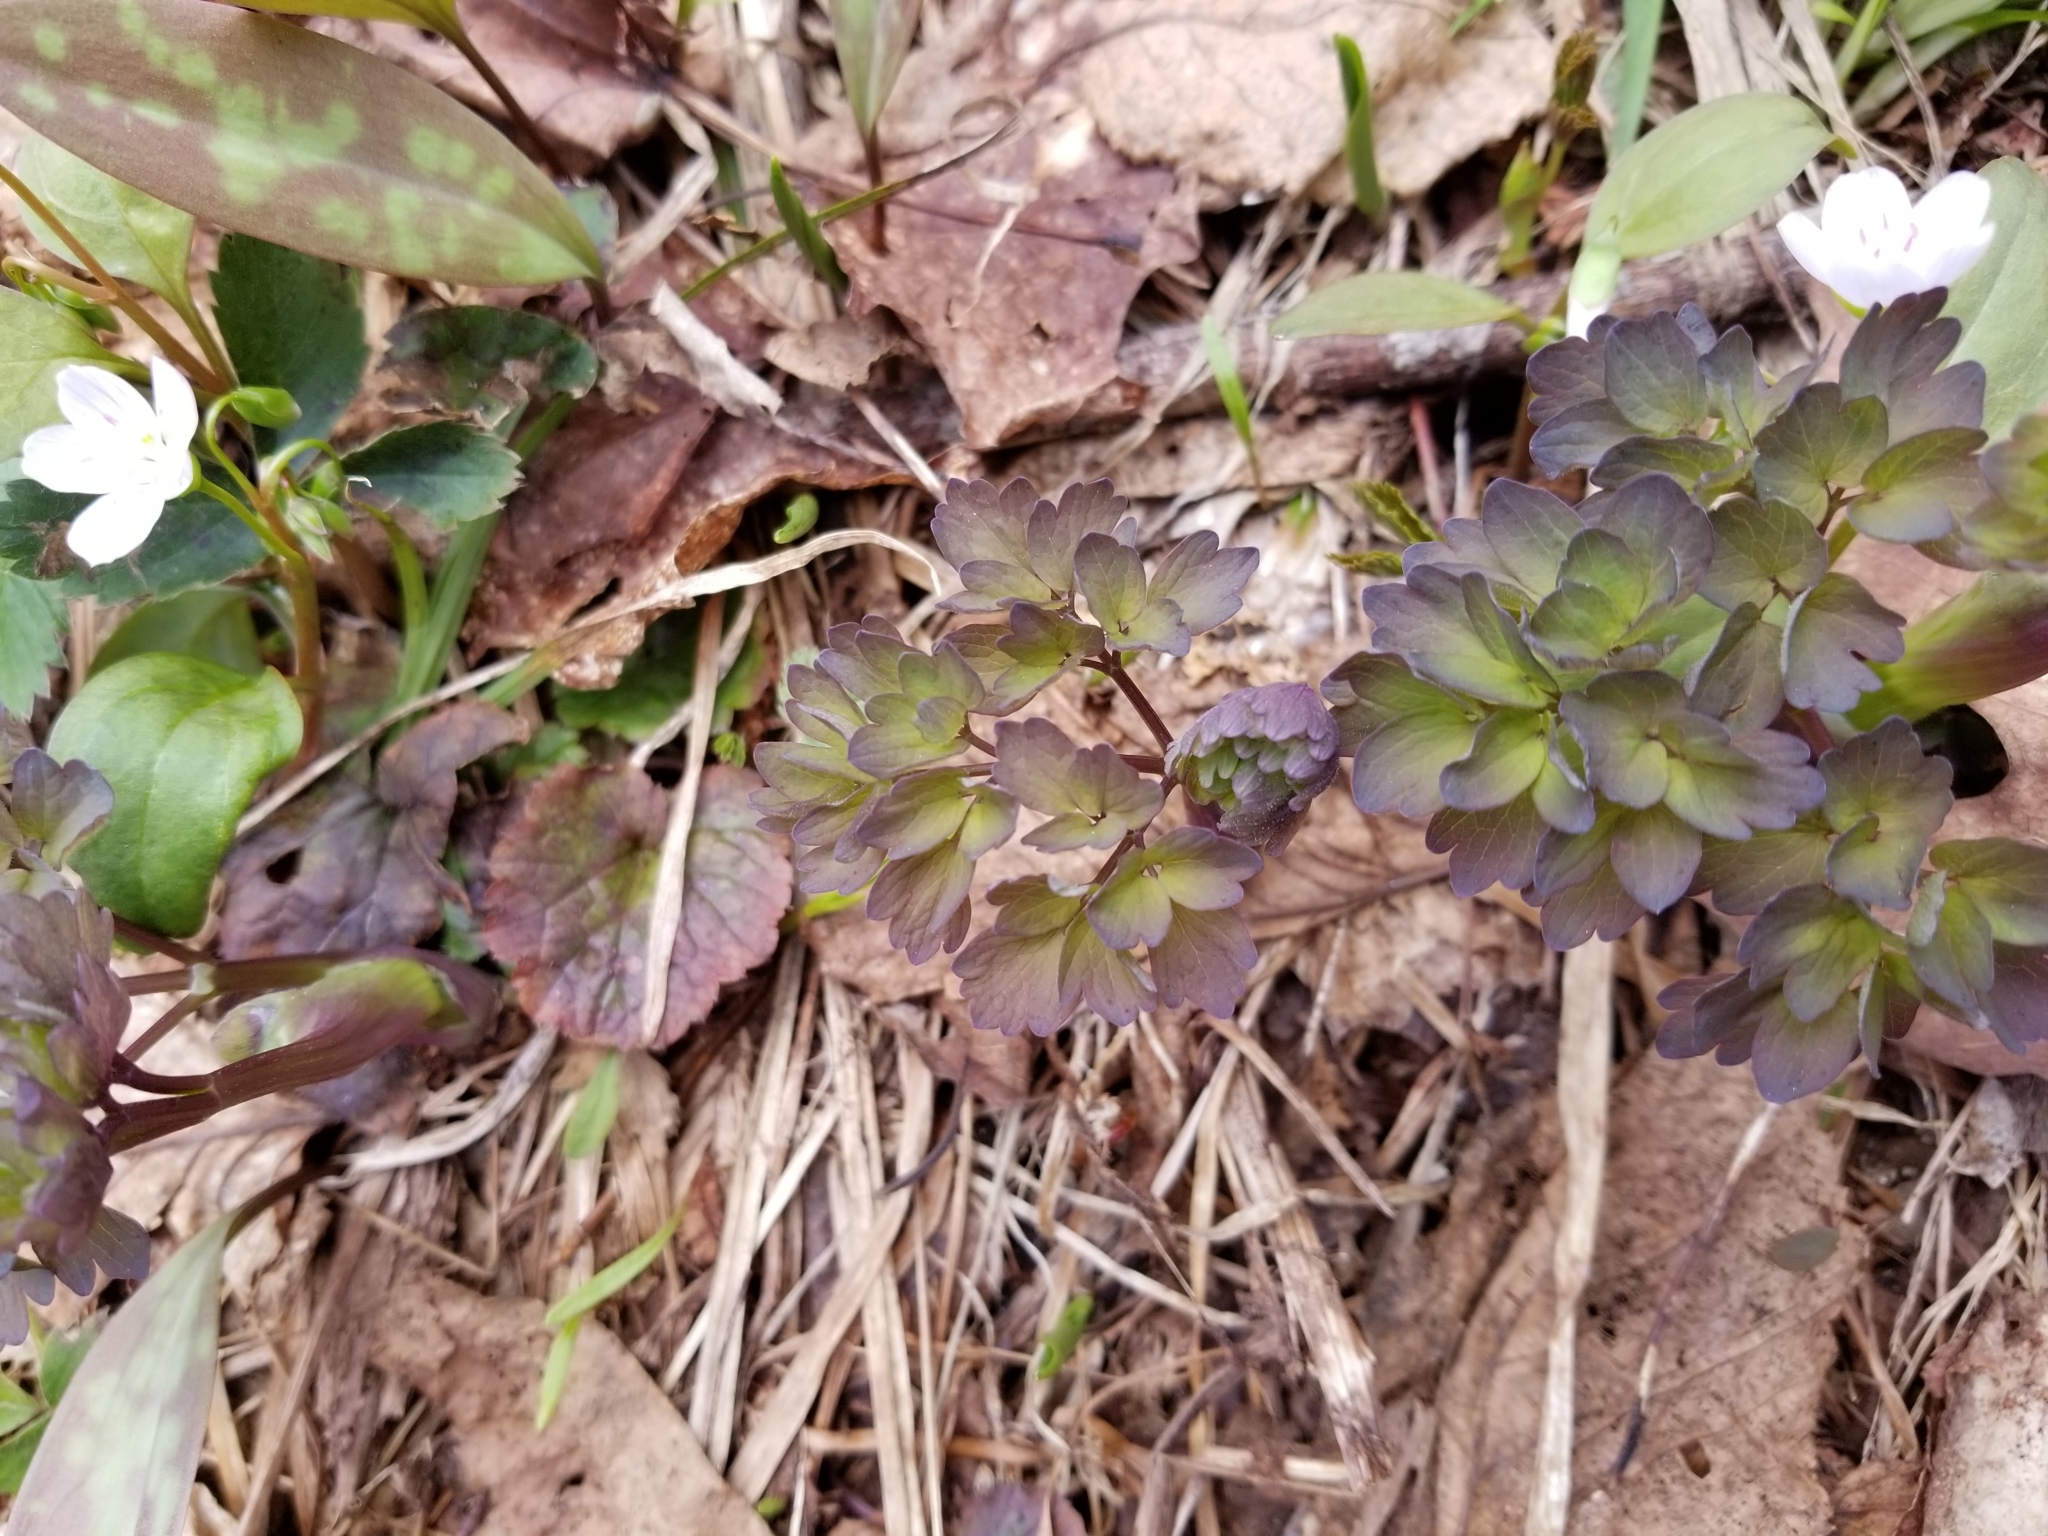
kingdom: Plantae
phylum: Tracheophyta
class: Magnoliopsida
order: Ranunculales
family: Ranunculaceae
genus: Thalictrum
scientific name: Thalictrum dioicum
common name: Early meadow-rue
